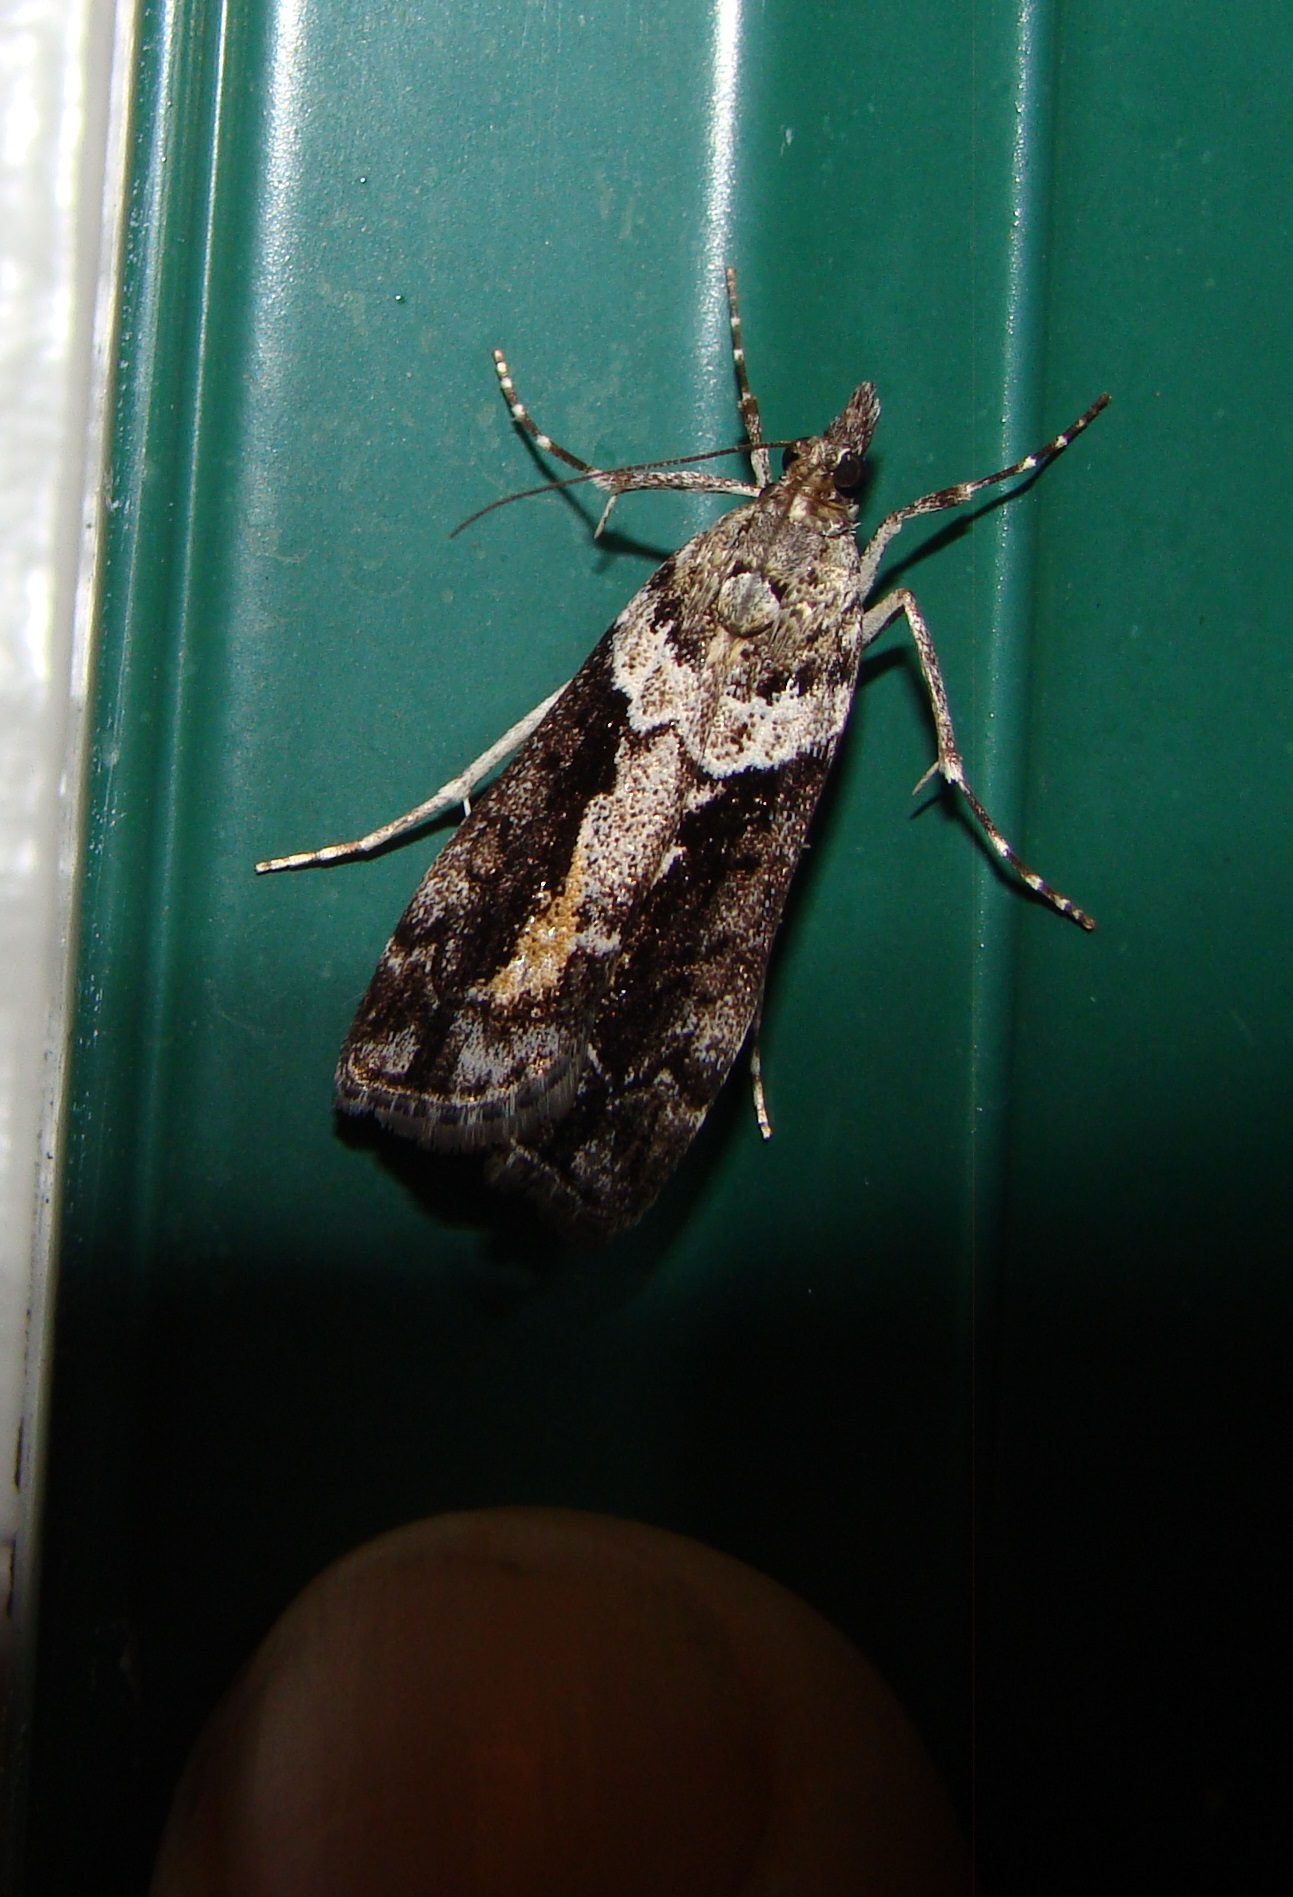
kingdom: Animalia
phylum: Arthropoda
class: Insecta
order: Lepidoptera
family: Crambidae
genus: Eudonia
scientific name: Eudonia submarginalis
